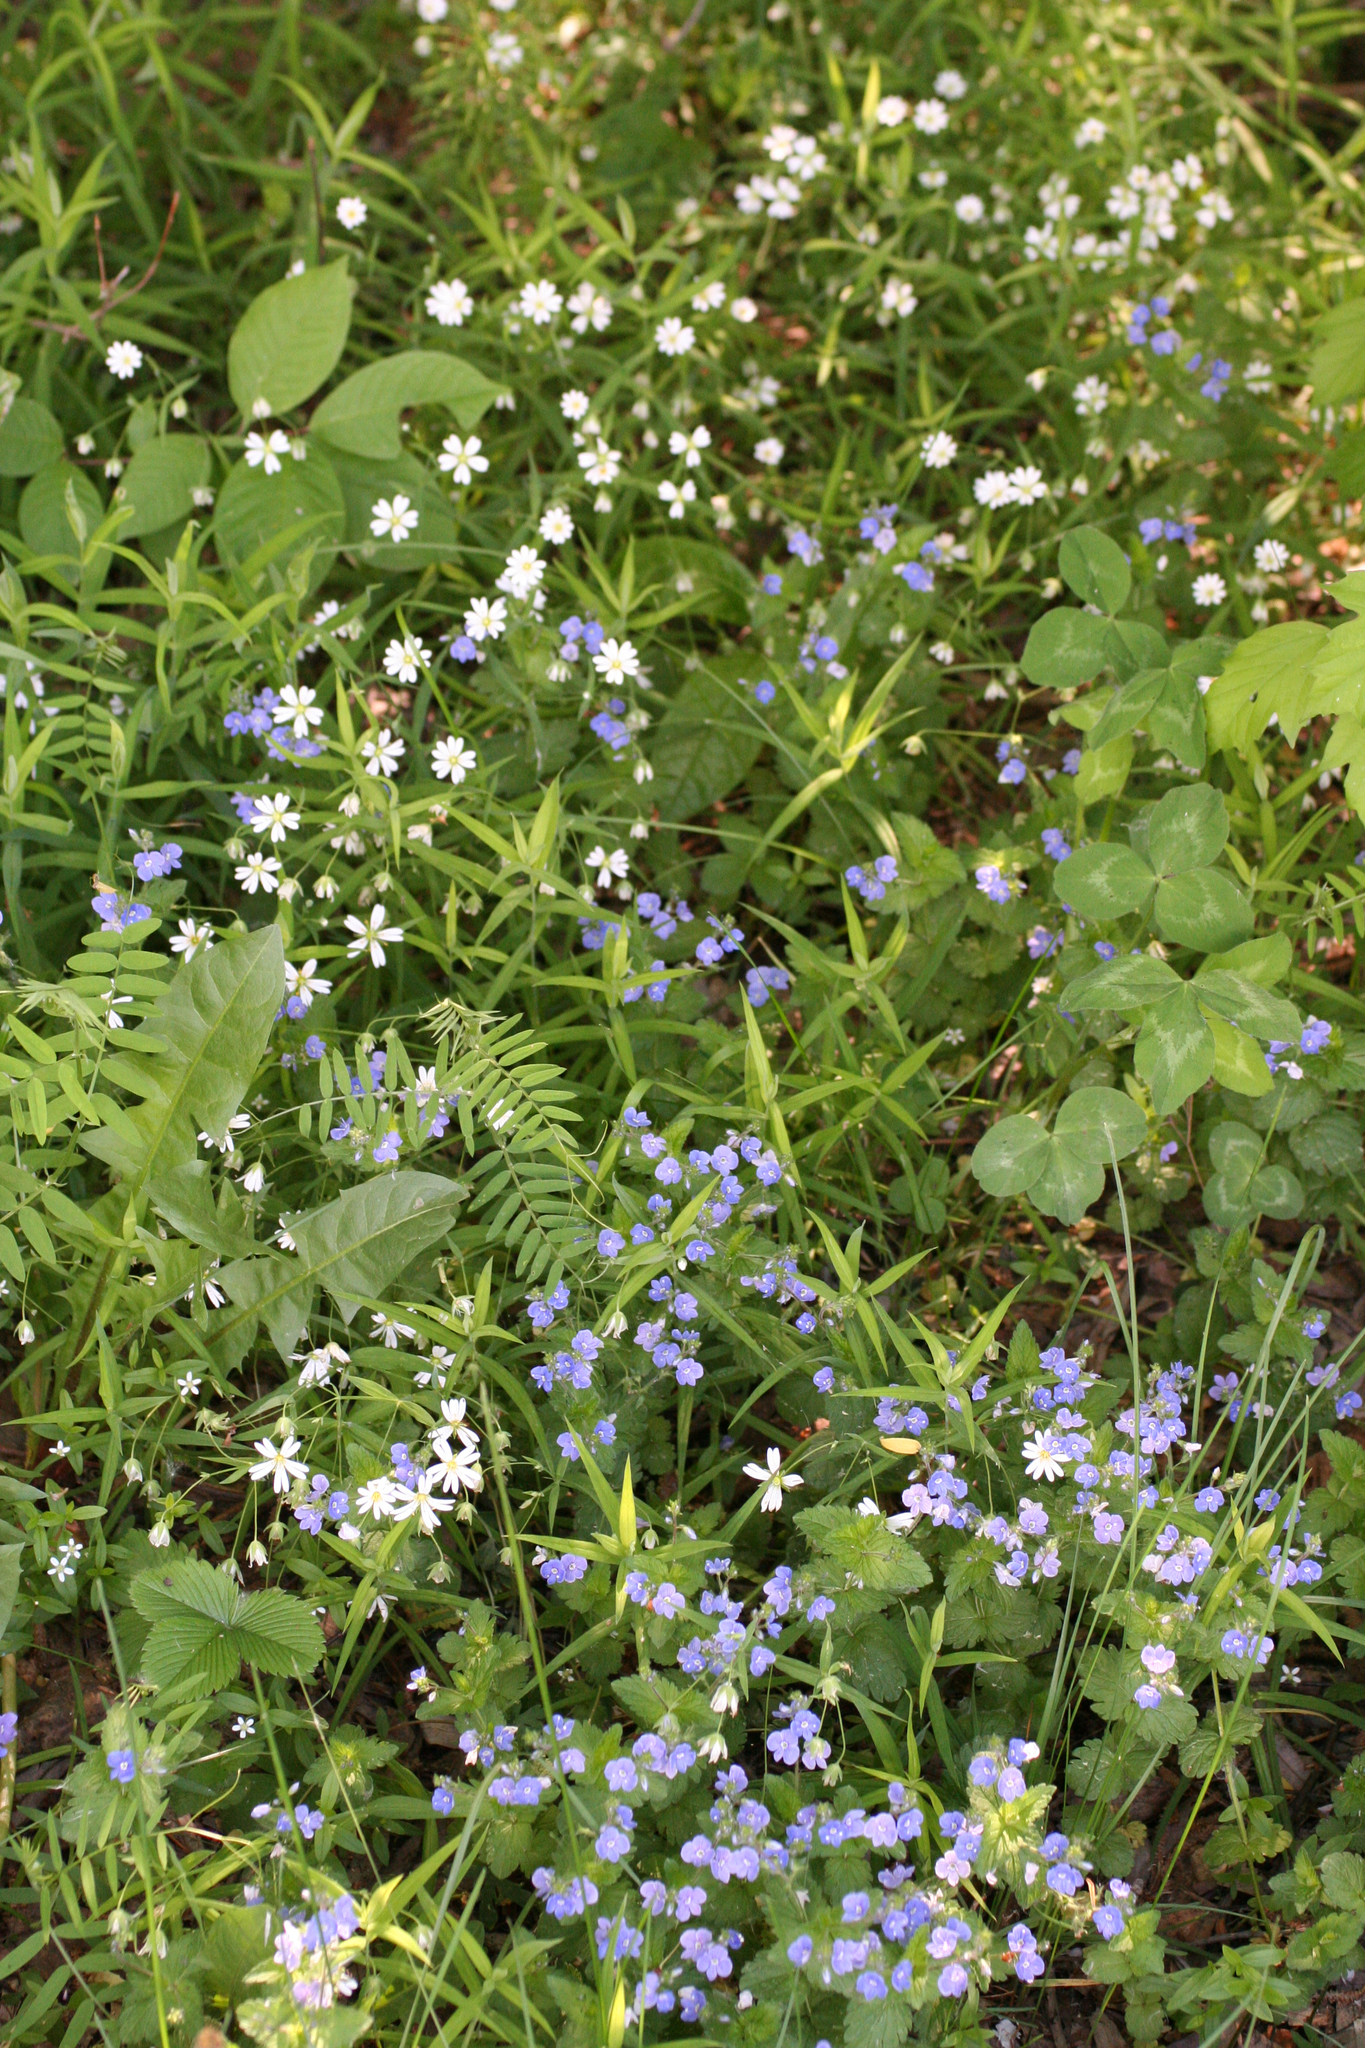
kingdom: Plantae
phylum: Tracheophyta
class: Magnoliopsida
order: Lamiales
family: Plantaginaceae
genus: Veronica
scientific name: Veronica chamaedrys
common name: Germander speedwell
